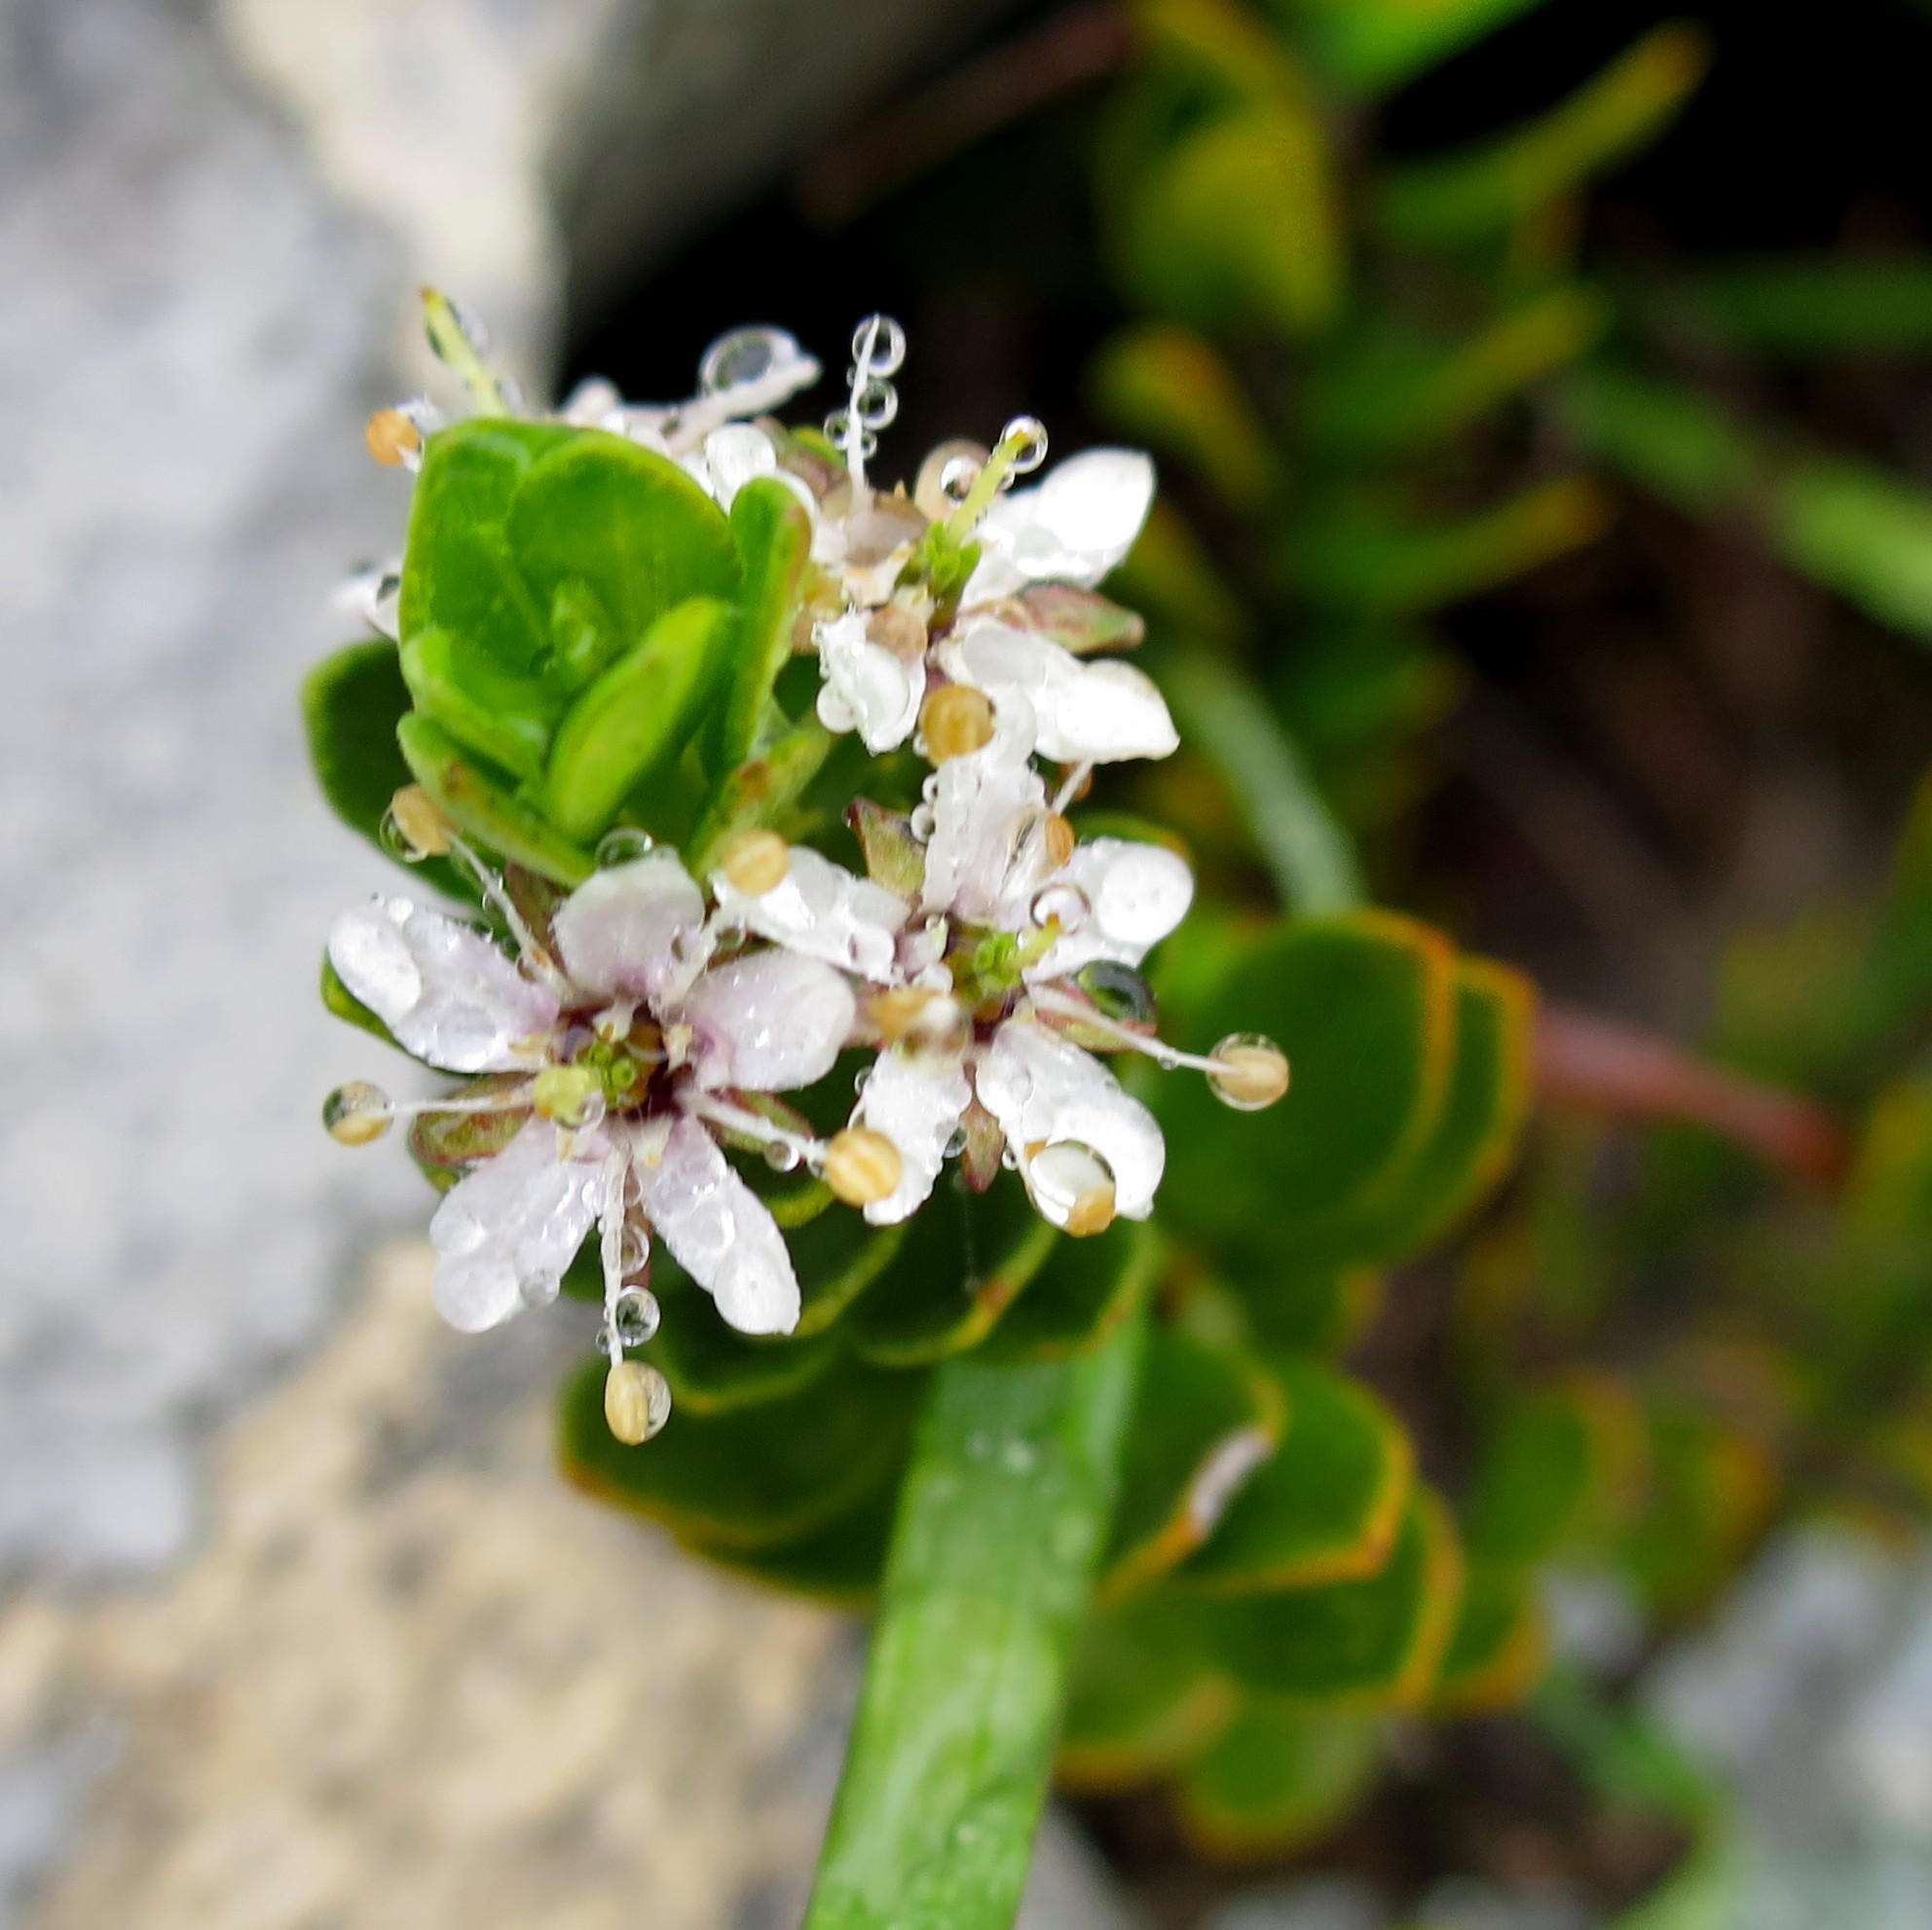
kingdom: Plantae
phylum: Tracheophyta
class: Magnoliopsida
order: Sapindales
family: Rutaceae
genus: Agathosma
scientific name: Agathosma ovata
